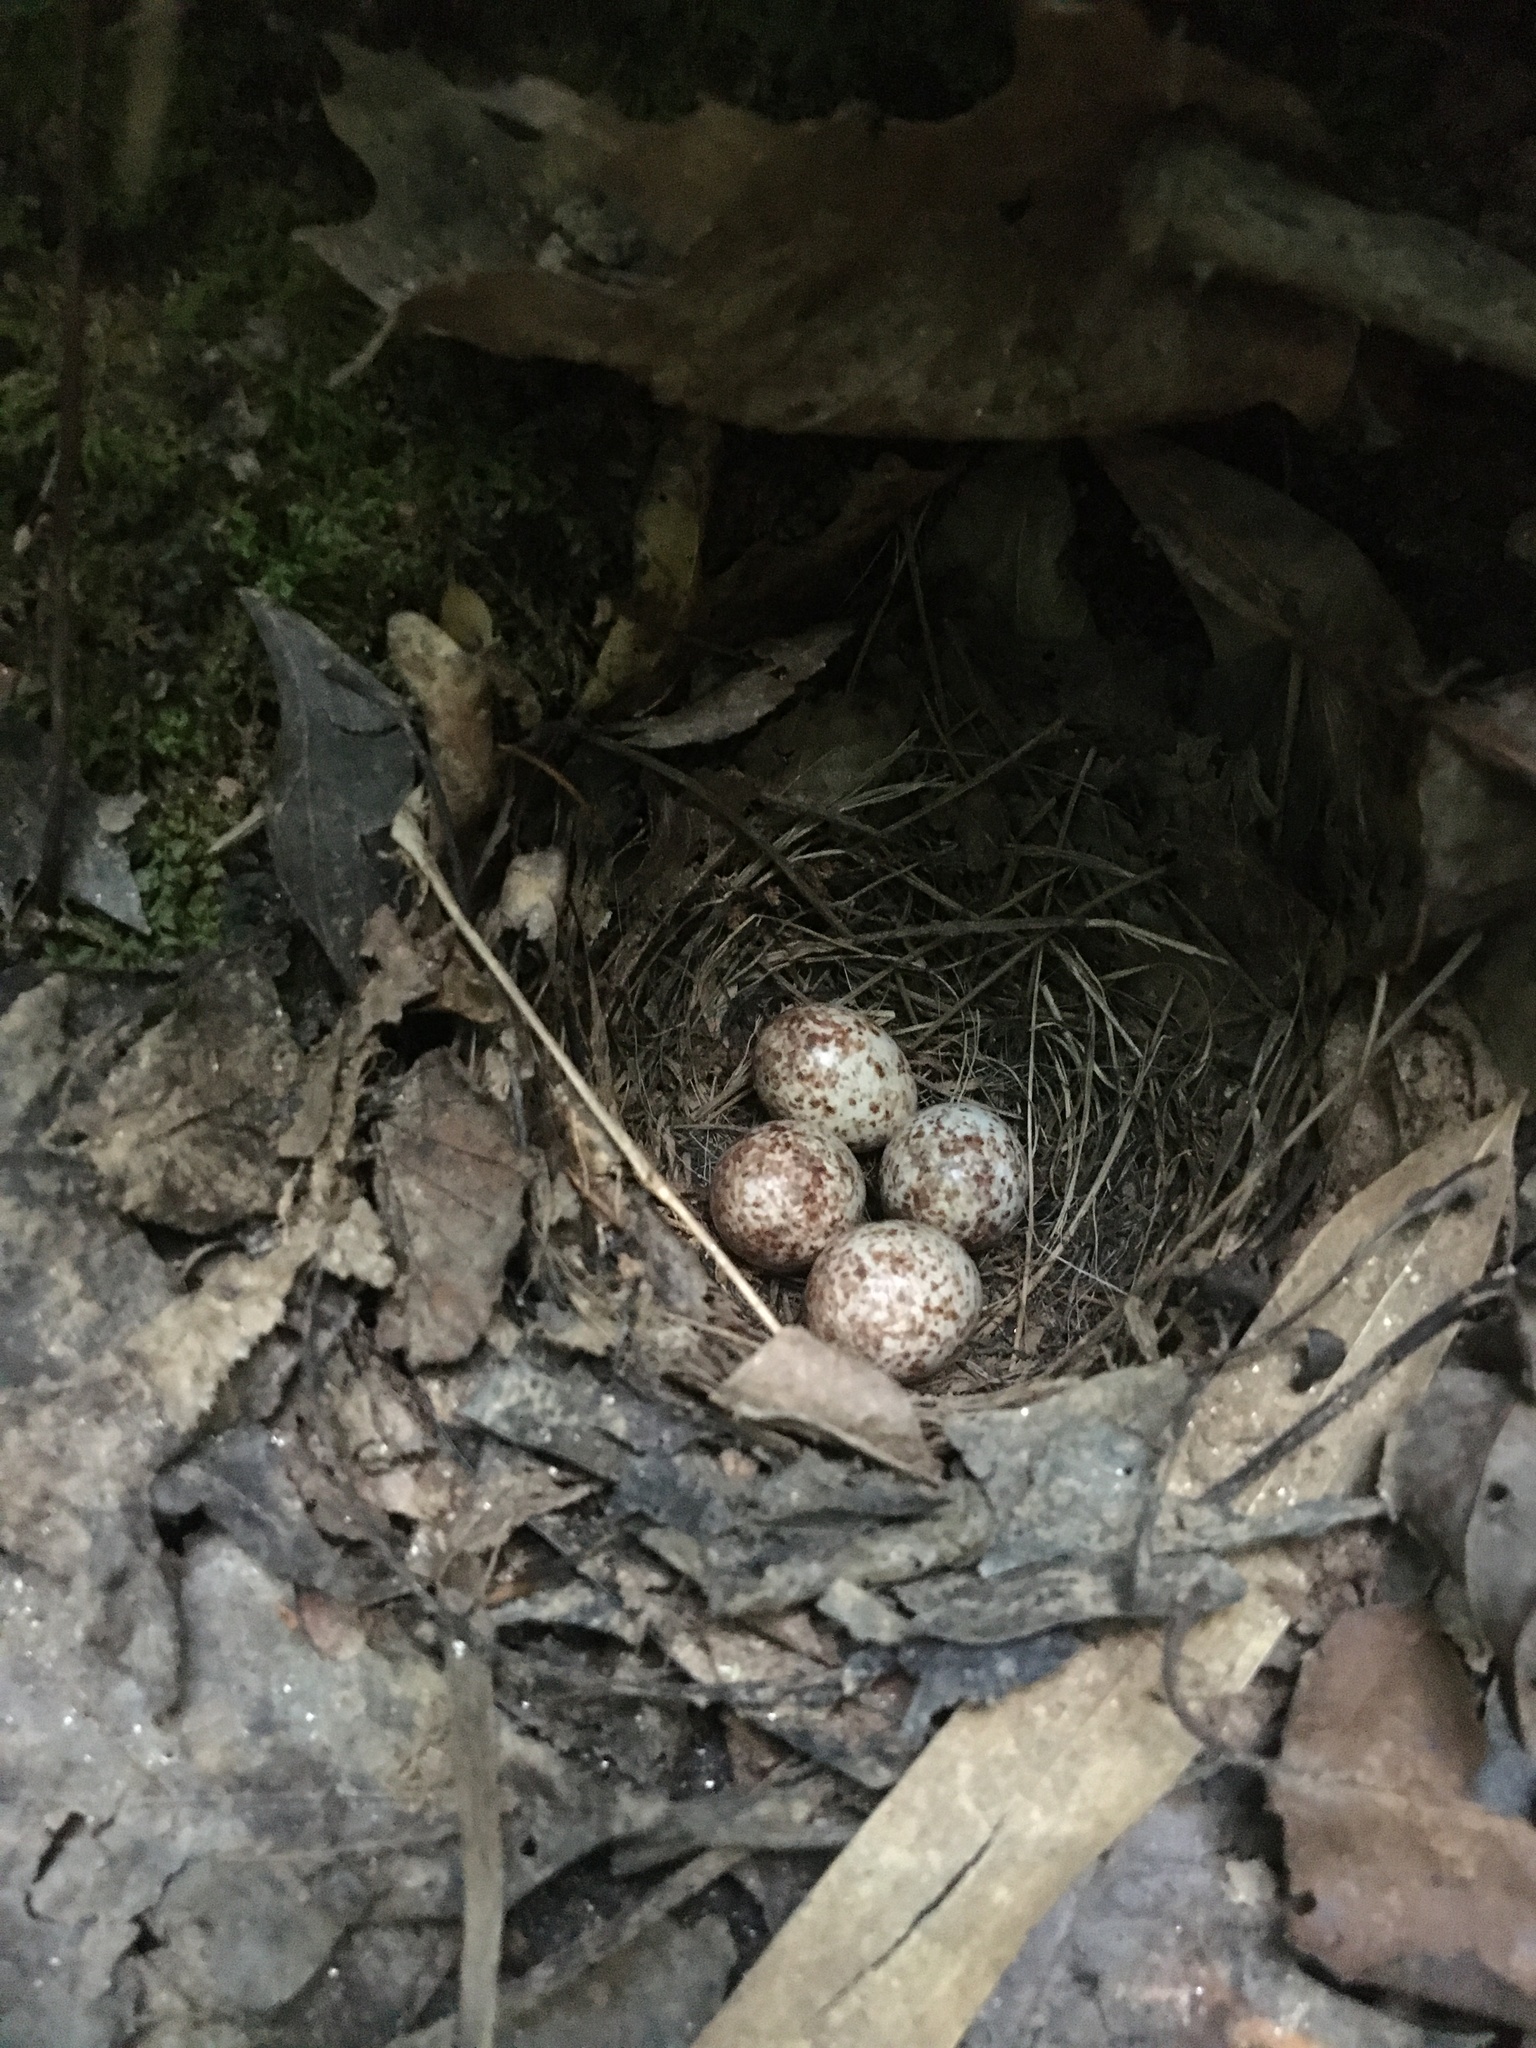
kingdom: Animalia
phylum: Chordata
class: Aves
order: Passeriformes
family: Parulidae
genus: Parkesia
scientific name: Parkesia motacilla
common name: Louisiana waterthrush
